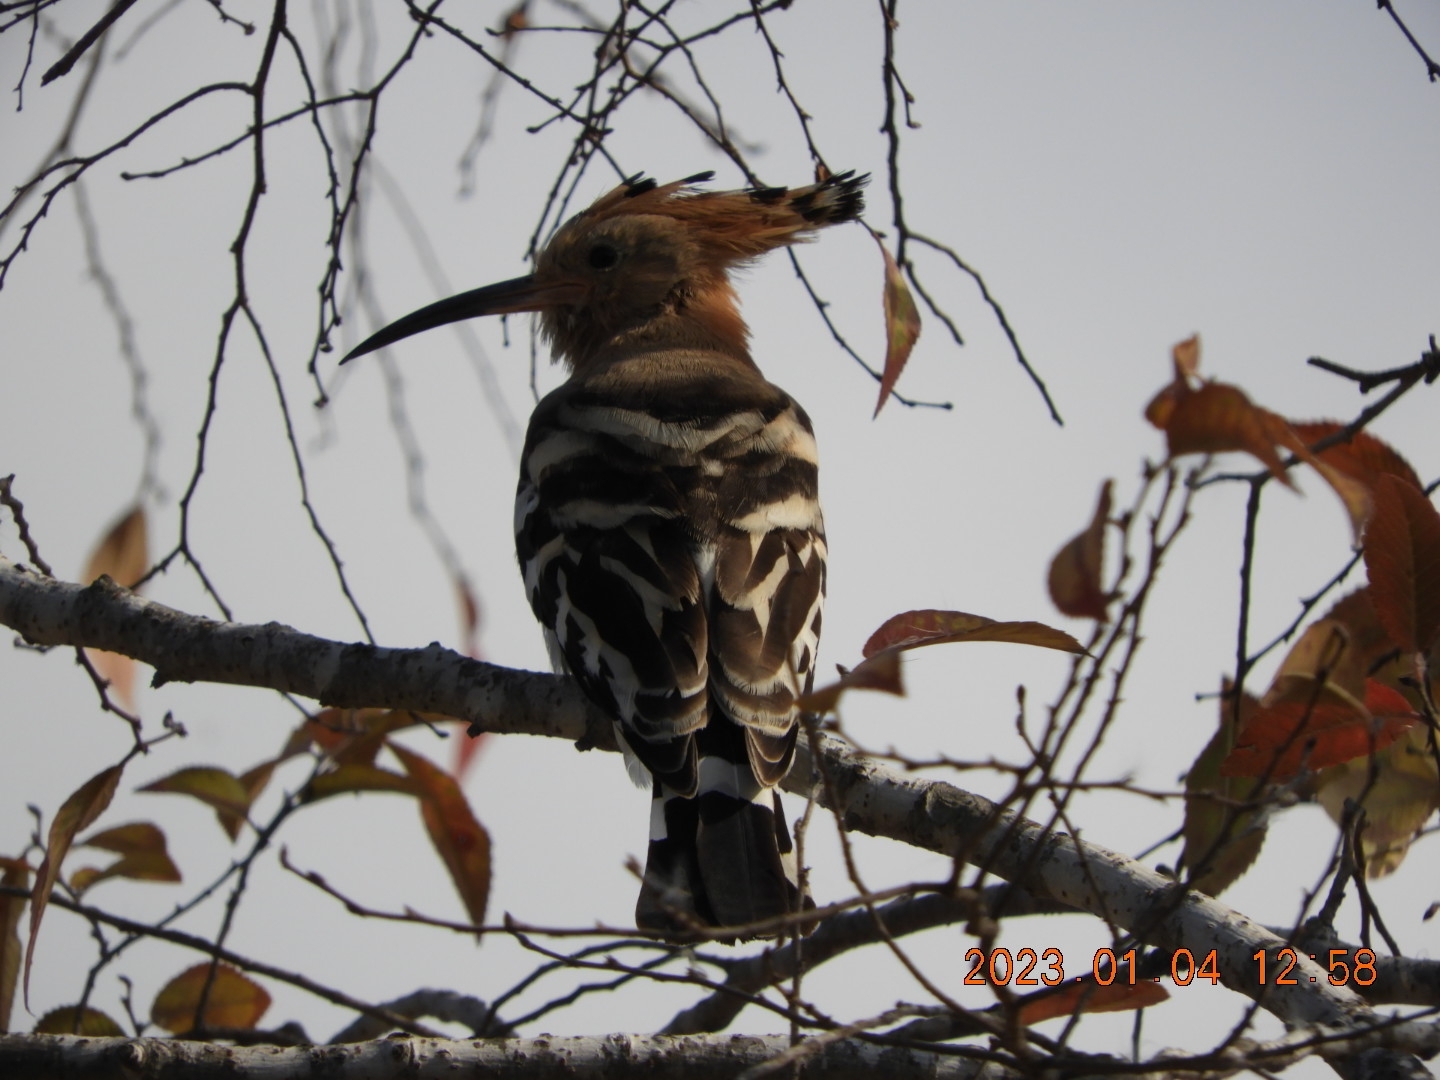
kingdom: Animalia
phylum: Chordata
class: Aves
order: Bucerotiformes
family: Upupidae
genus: Upupa
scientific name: Upupa epops
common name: Eurasian hoopoe
